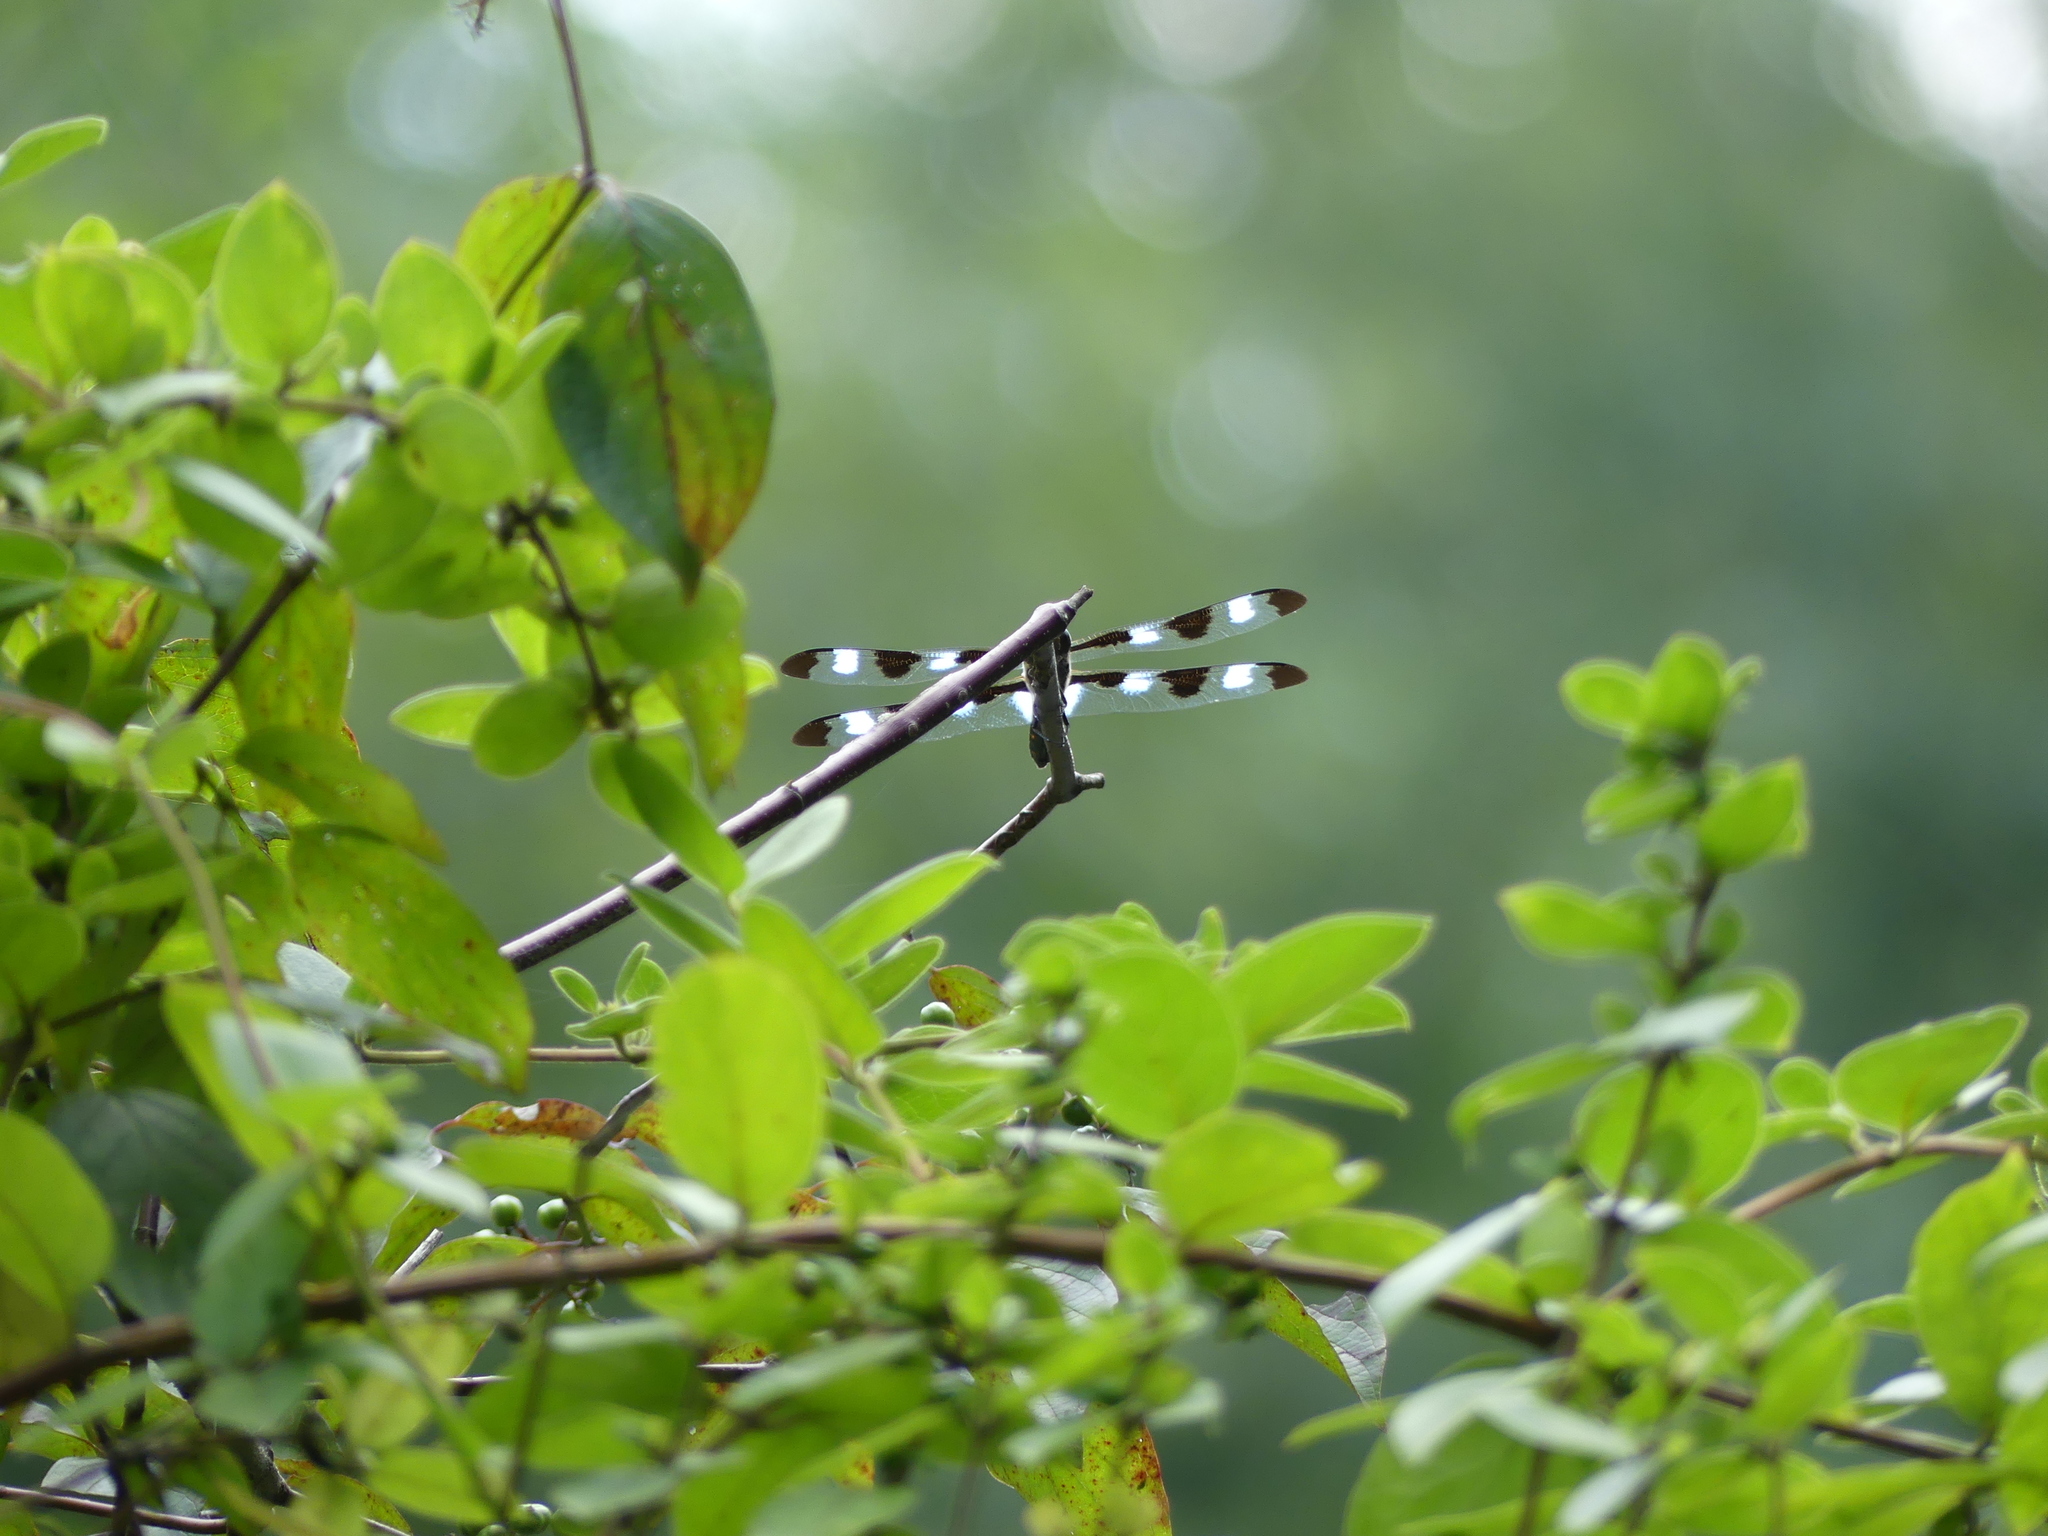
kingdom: Animalia
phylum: Arthropoda
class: Insecta
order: Odonata
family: Libellulidae
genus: Libellula
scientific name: Libellula pulchella
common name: Twelve-spotted skimmer
